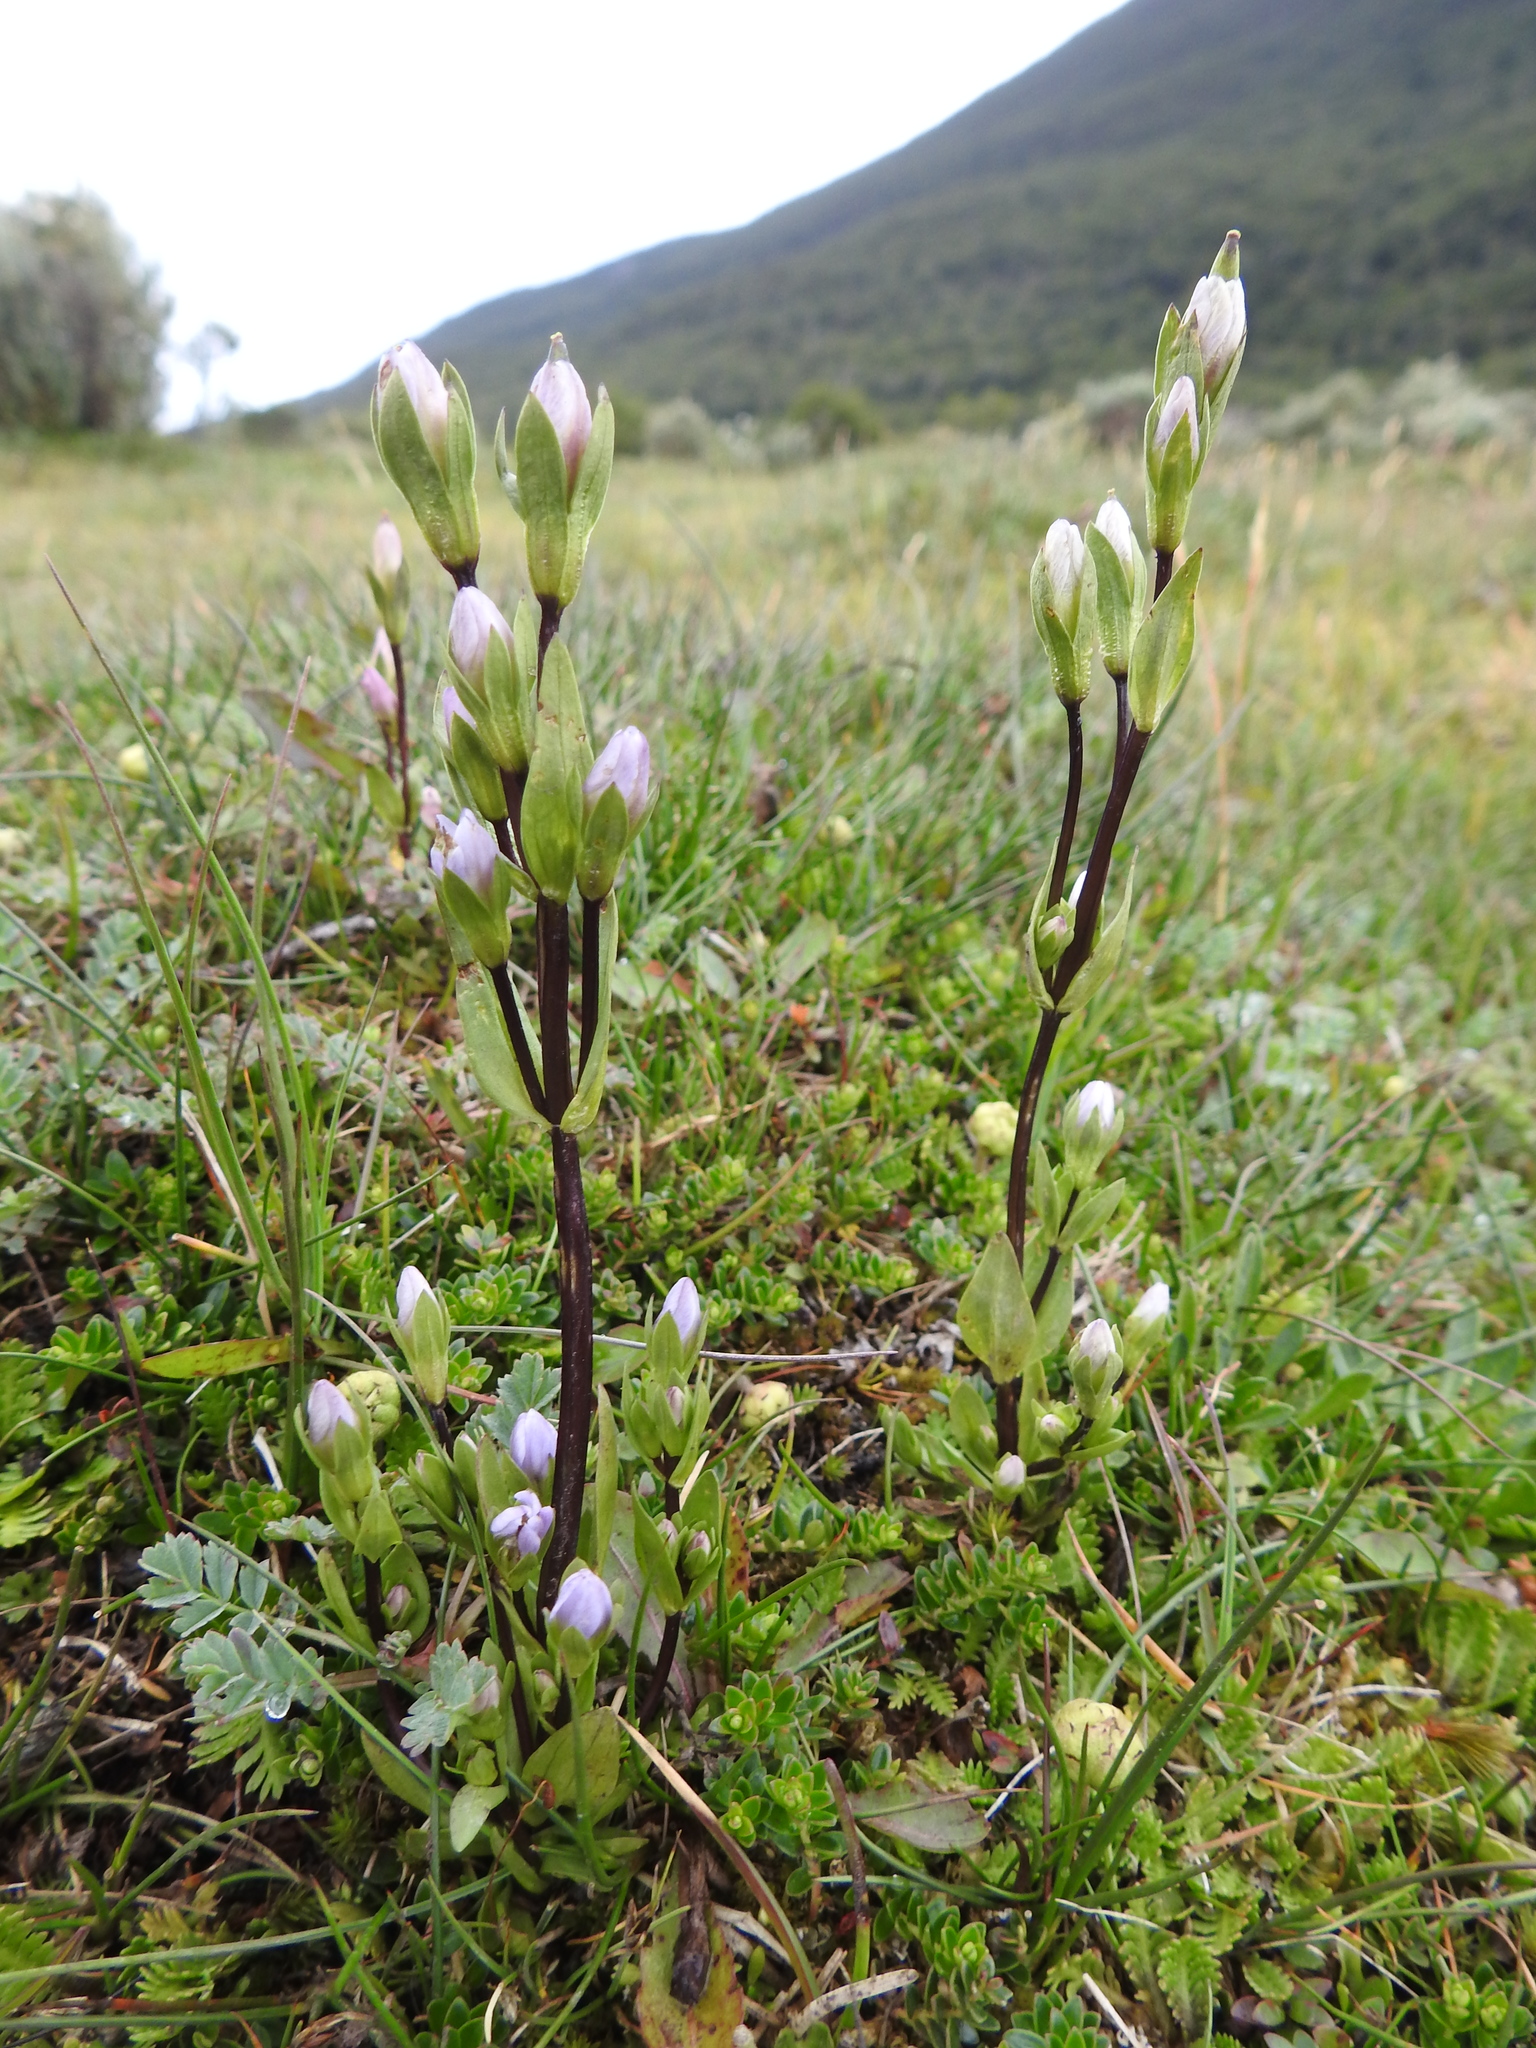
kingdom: Plantae
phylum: Tracheophyta
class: Magnoliopsida
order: Gentianales
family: Gentianaceae
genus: Gentianella
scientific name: Gentianella magellanica
